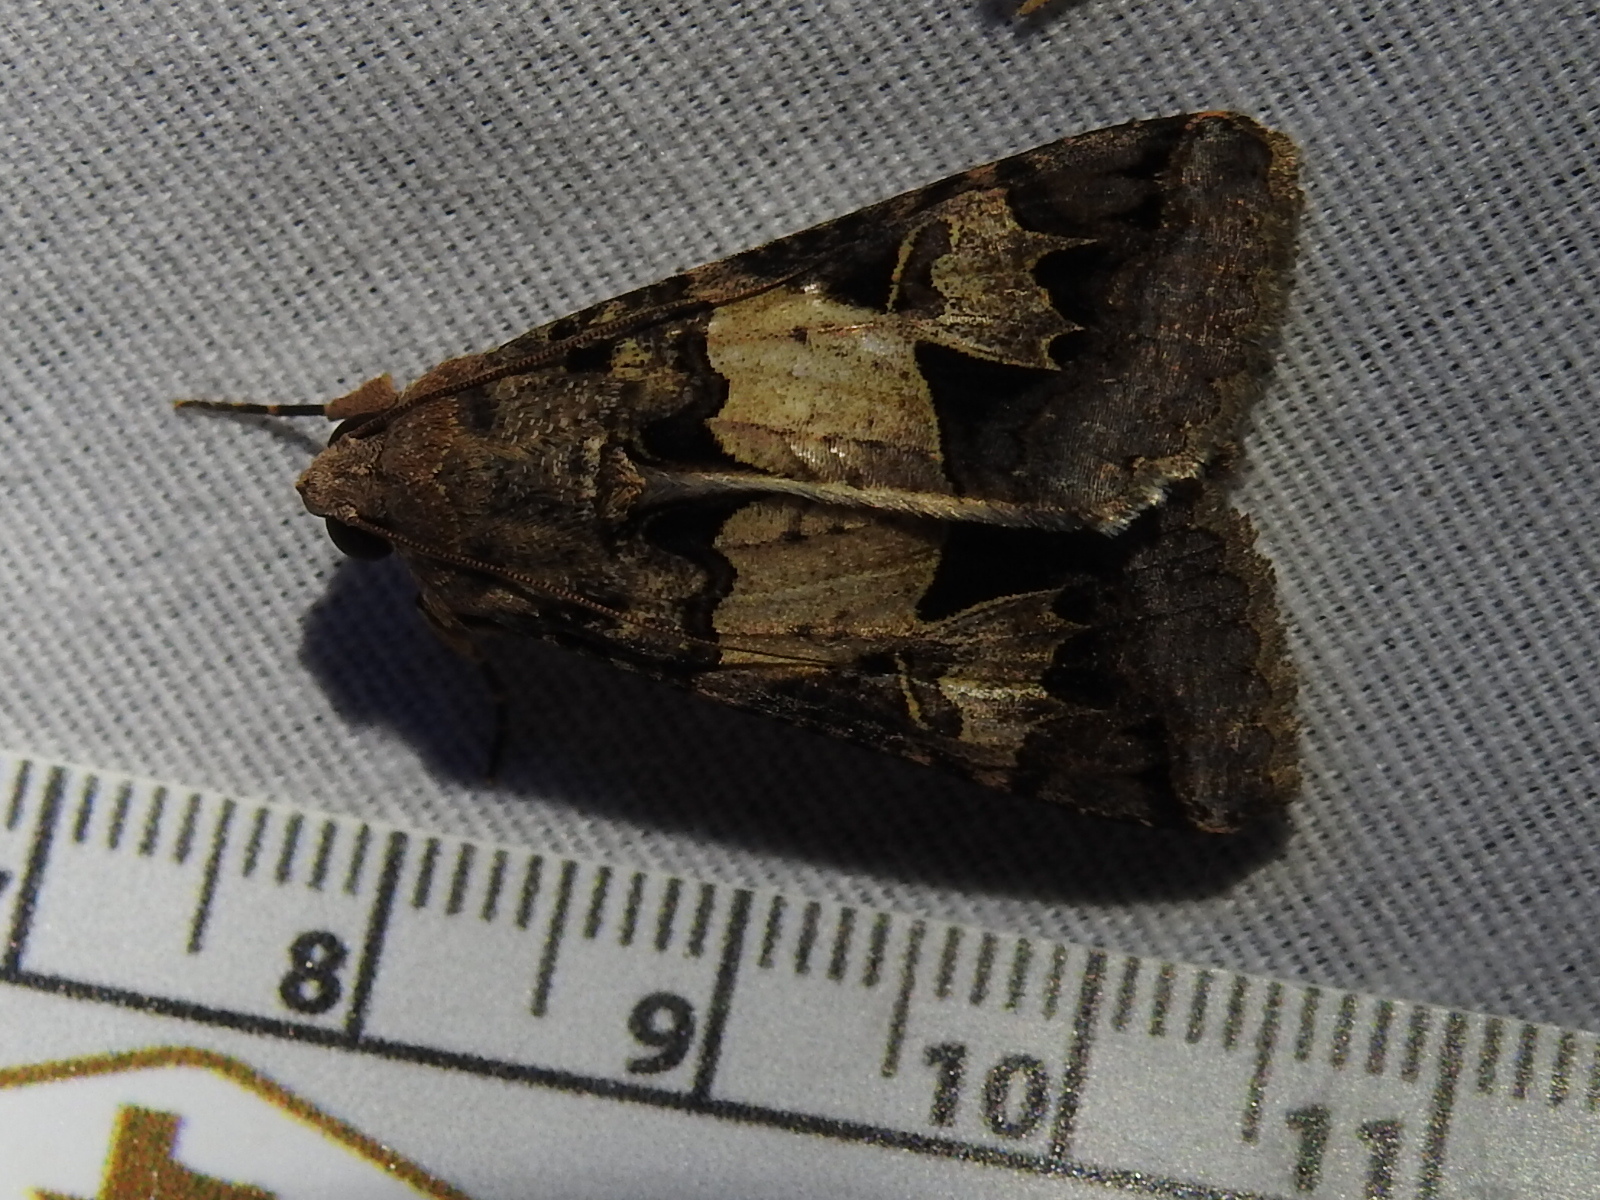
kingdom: Animalia
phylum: Arthropoda
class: Insecta
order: Lepidoptera
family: Erebidae
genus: Melipotis
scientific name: Melipotis agrotoides
